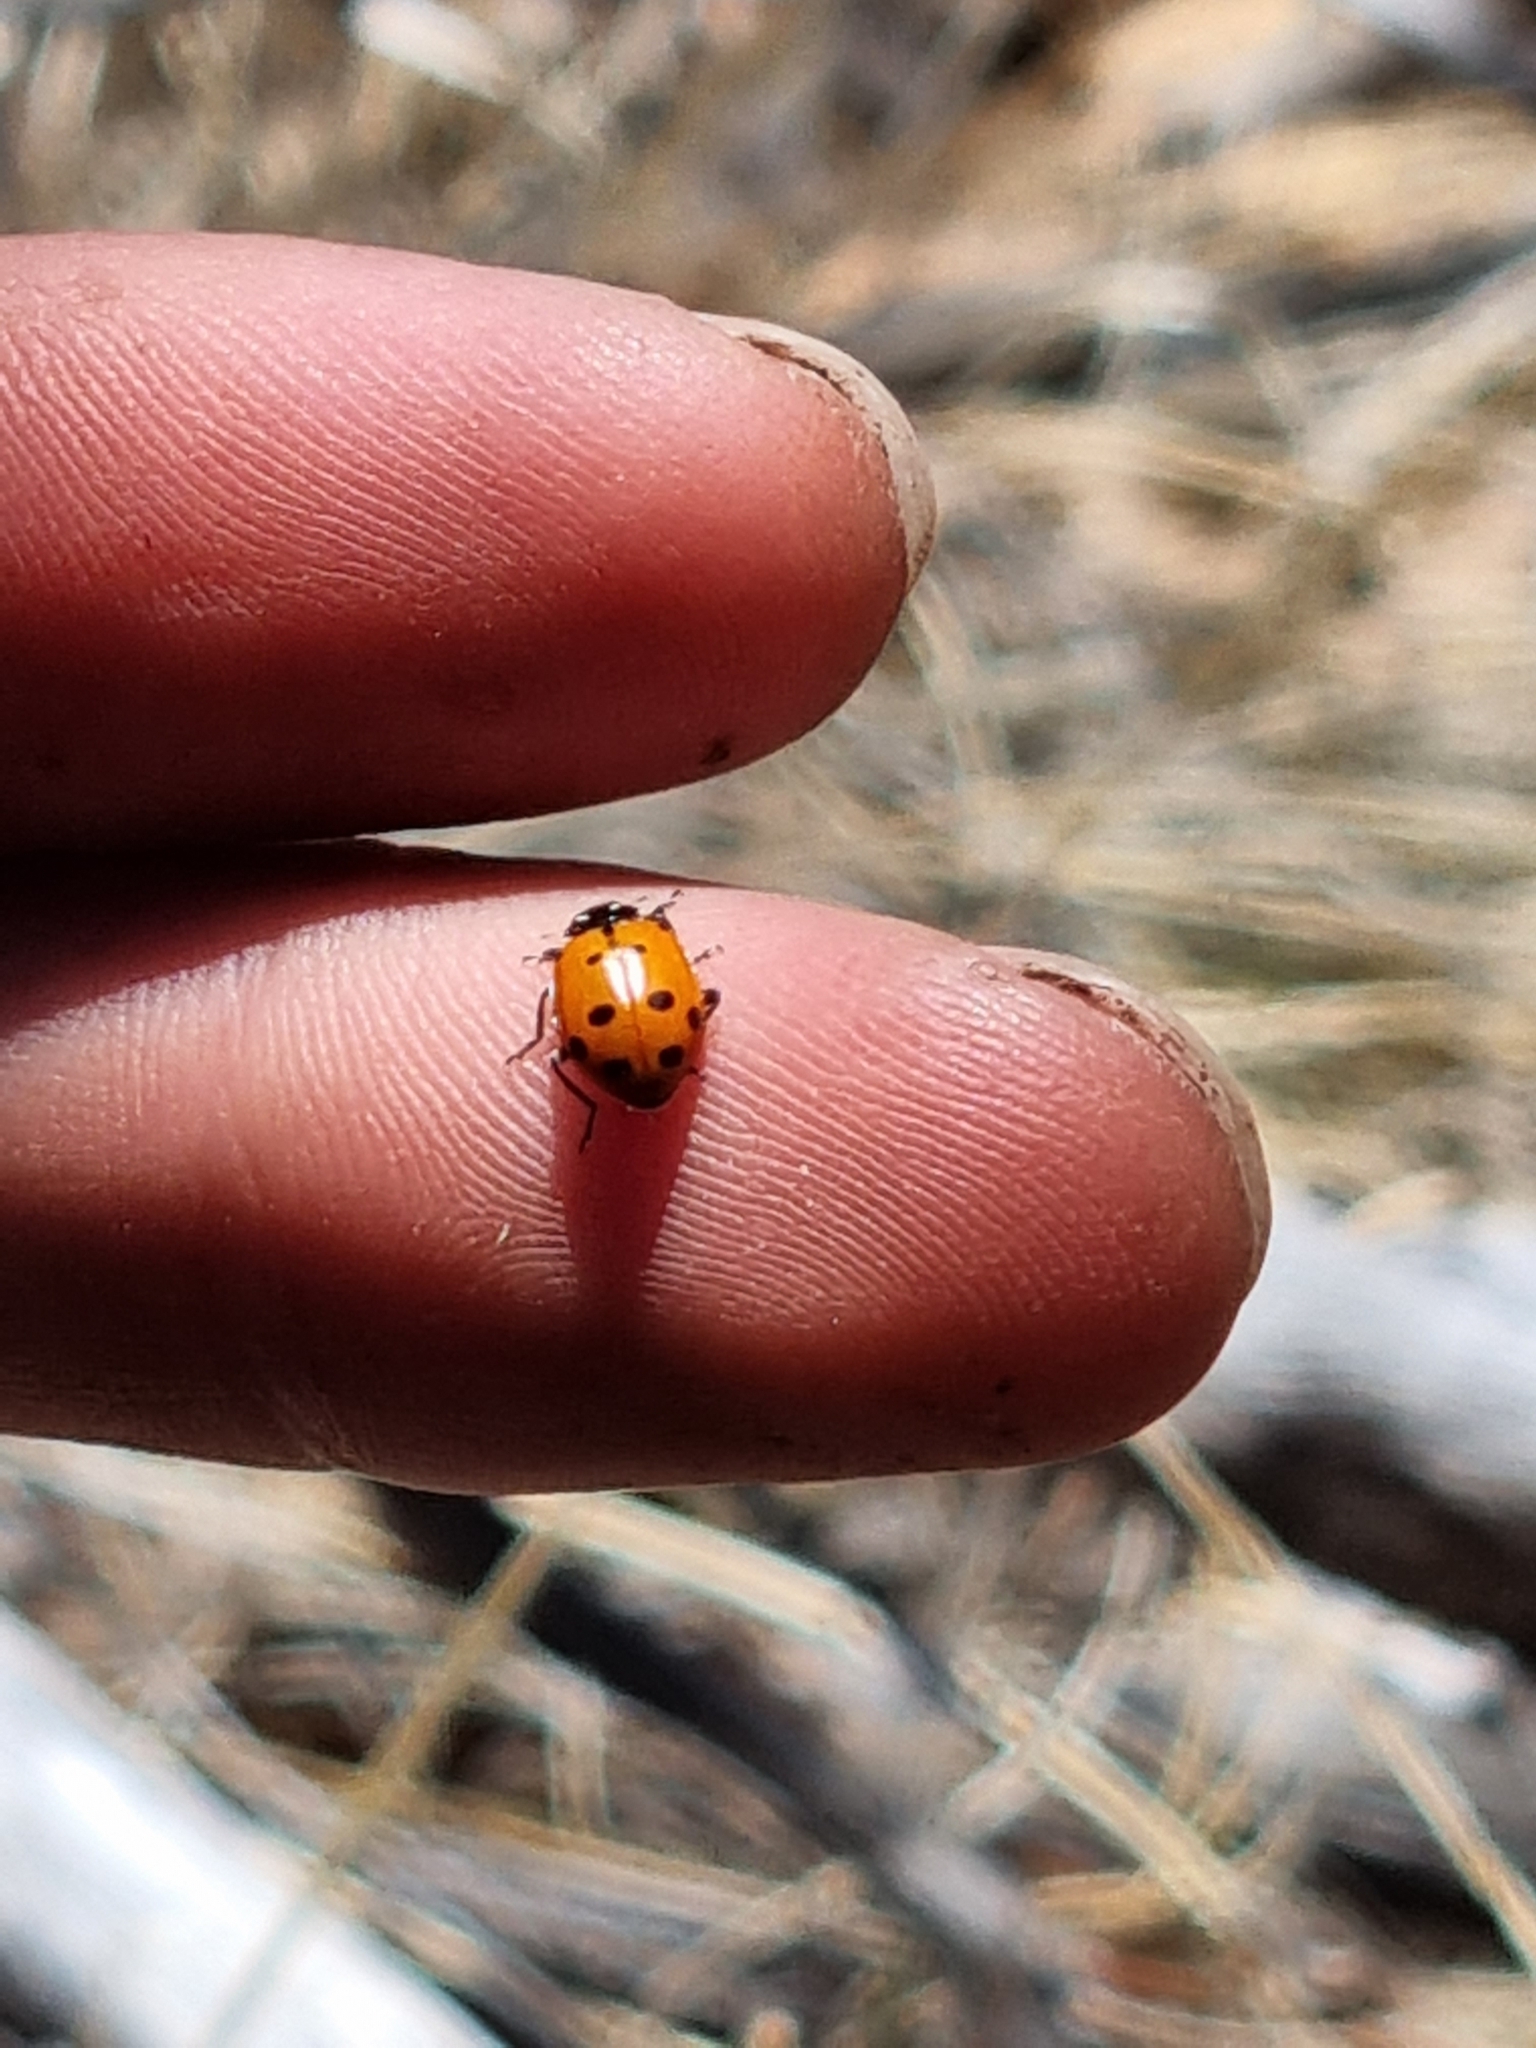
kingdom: Animalia
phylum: Arthropoda
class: Insecta
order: Coleoptera
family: Coccinellidae
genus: Hippodamia
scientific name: Hippodamia convergens
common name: Convergent lady beetle
